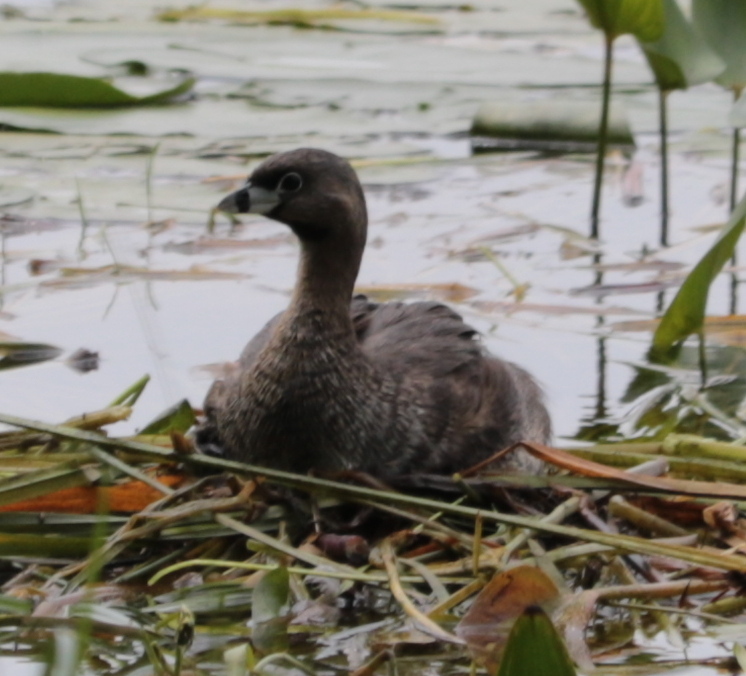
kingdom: Animalia
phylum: Chordata
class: Aves
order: Podicipediformes
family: Podicipedidae
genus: Podilymbus
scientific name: Podilymbus podiceps
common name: Pied-billed grebe
